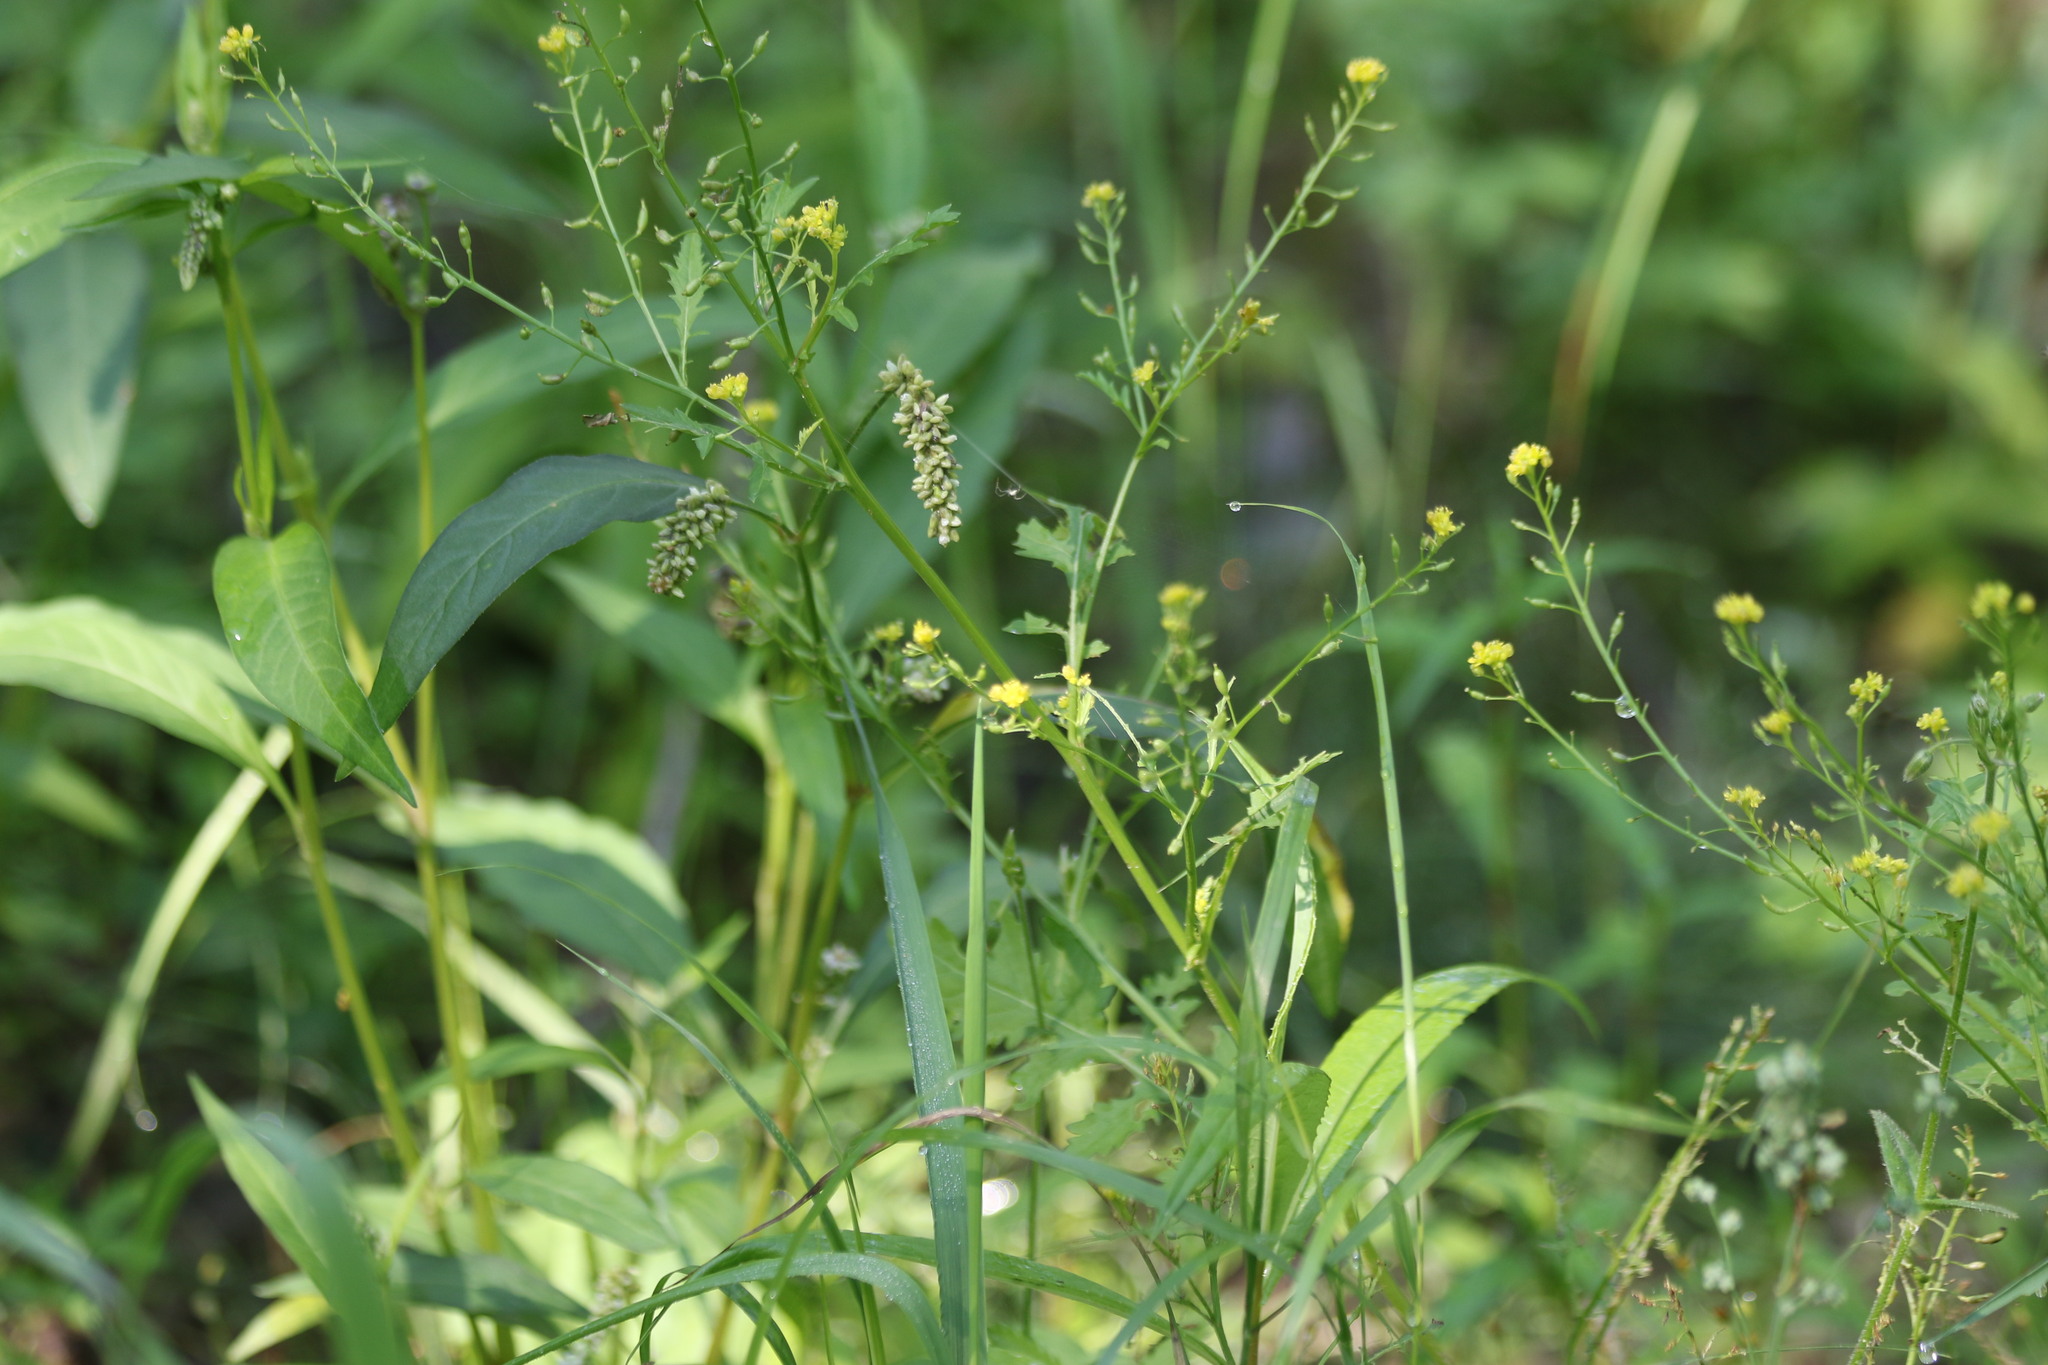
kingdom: Plantae
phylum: Tracheophyta
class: Magnoliopsida
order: Brassicales
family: Brassicaceae
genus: Rorippa
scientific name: Rorippa palustris
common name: Marsh yellow-cress
